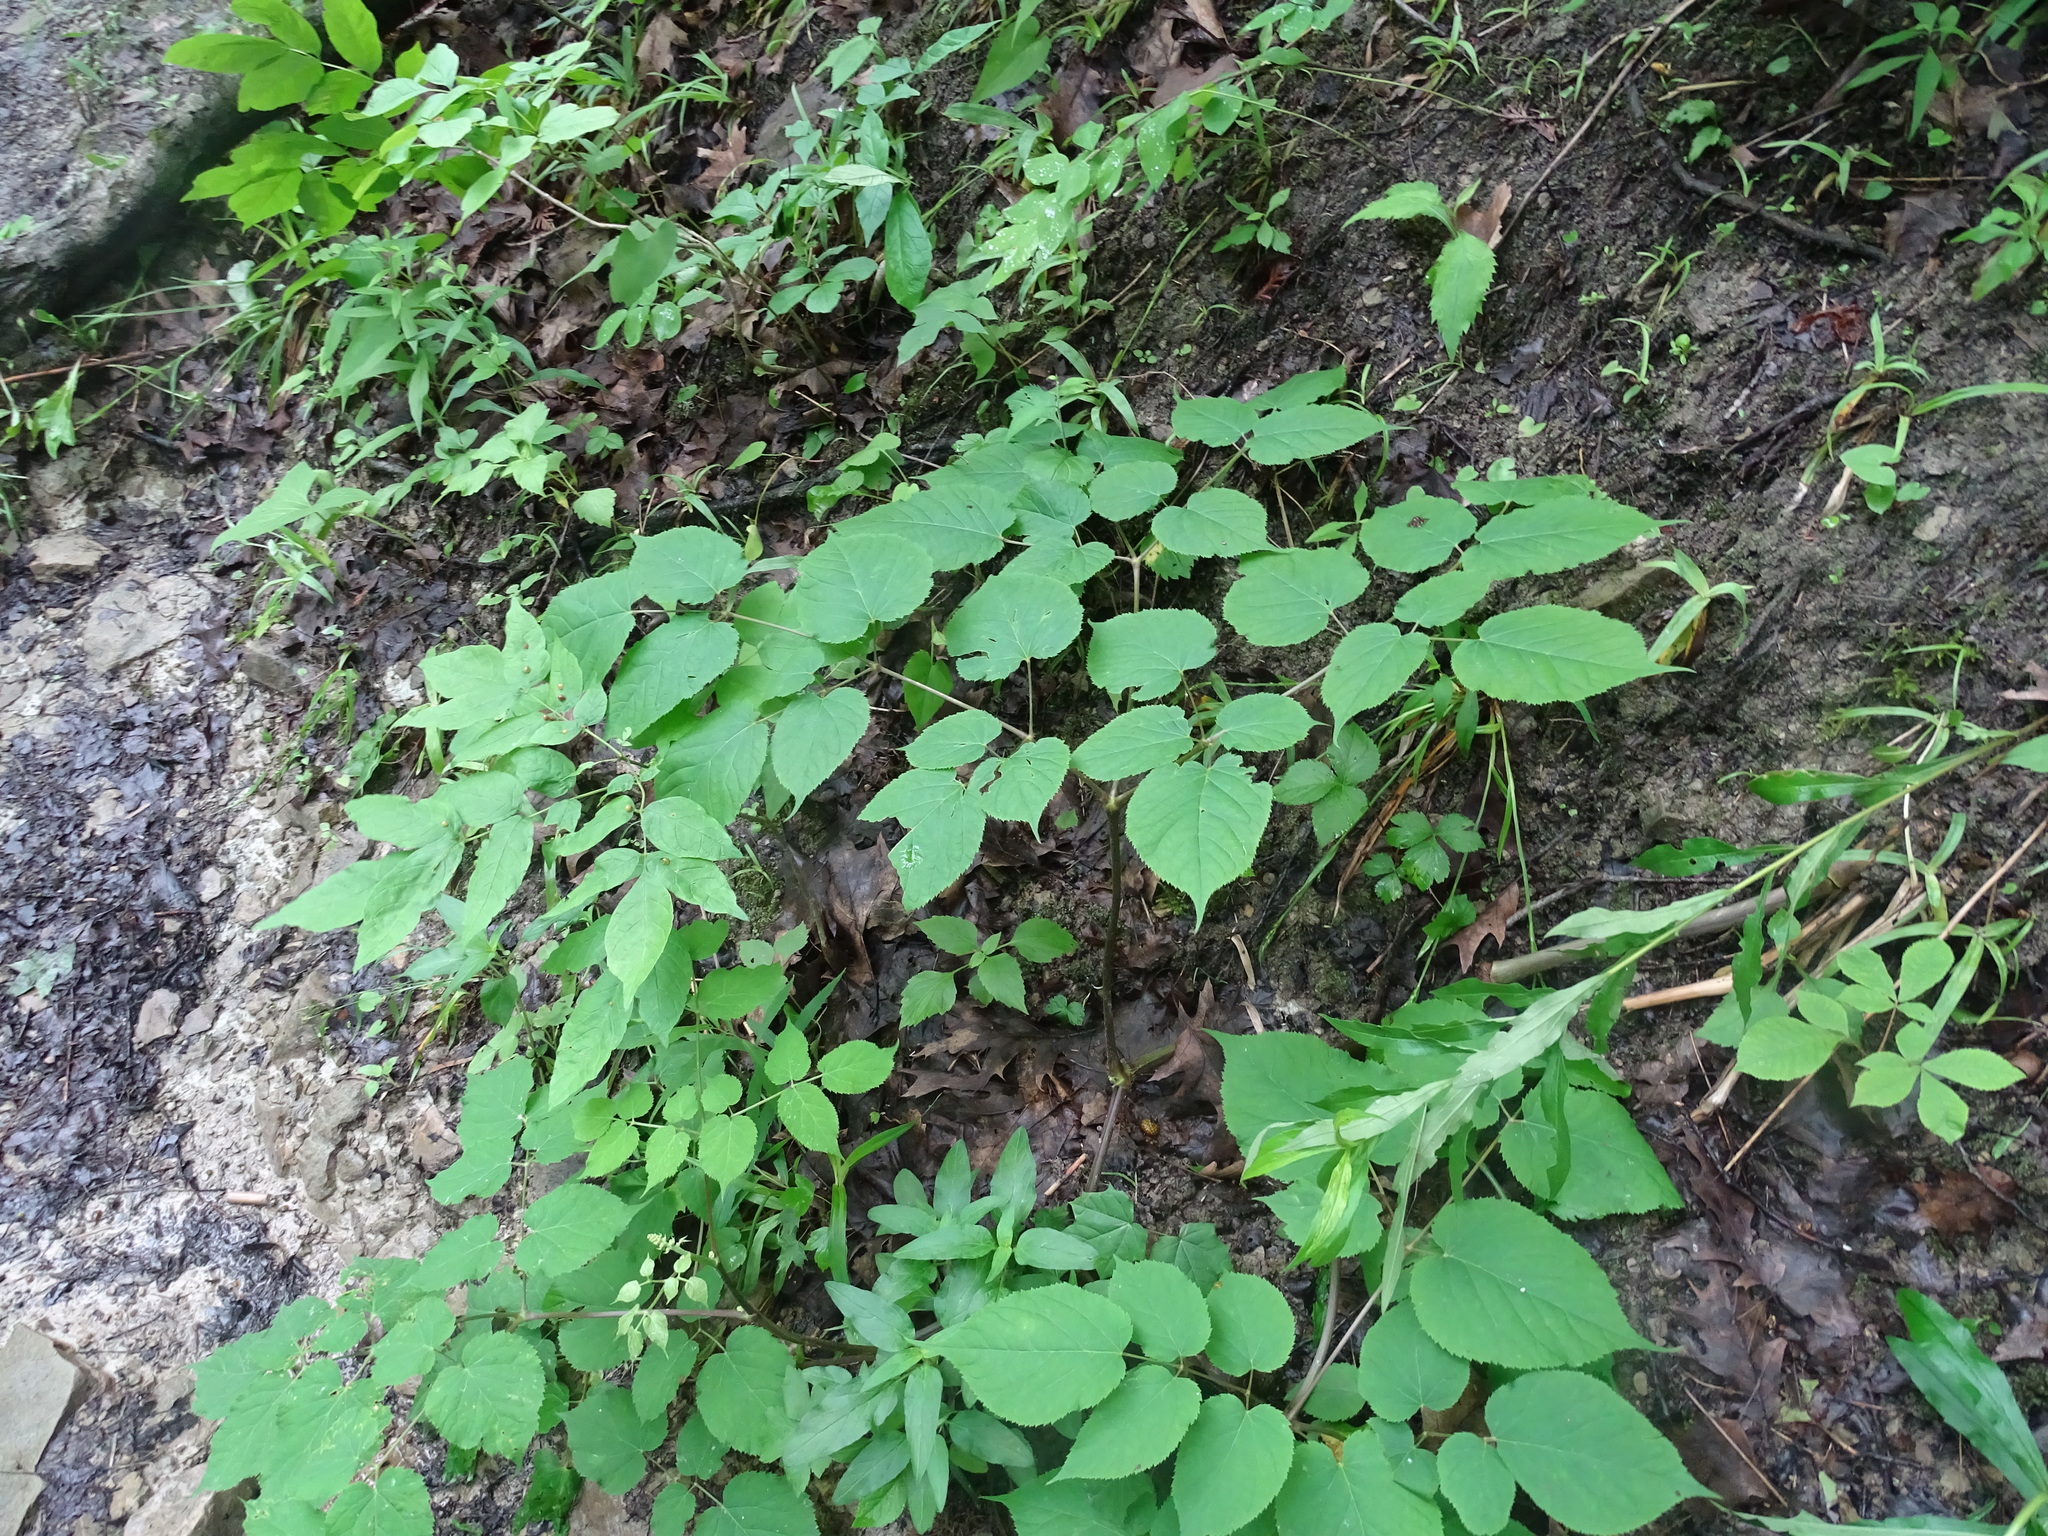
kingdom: Plantae
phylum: Tracheophyta
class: Magnoliopsida
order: Apiales
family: Araliaceae
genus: Aralia
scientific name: Aralia racemosa
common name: American-spikenard
